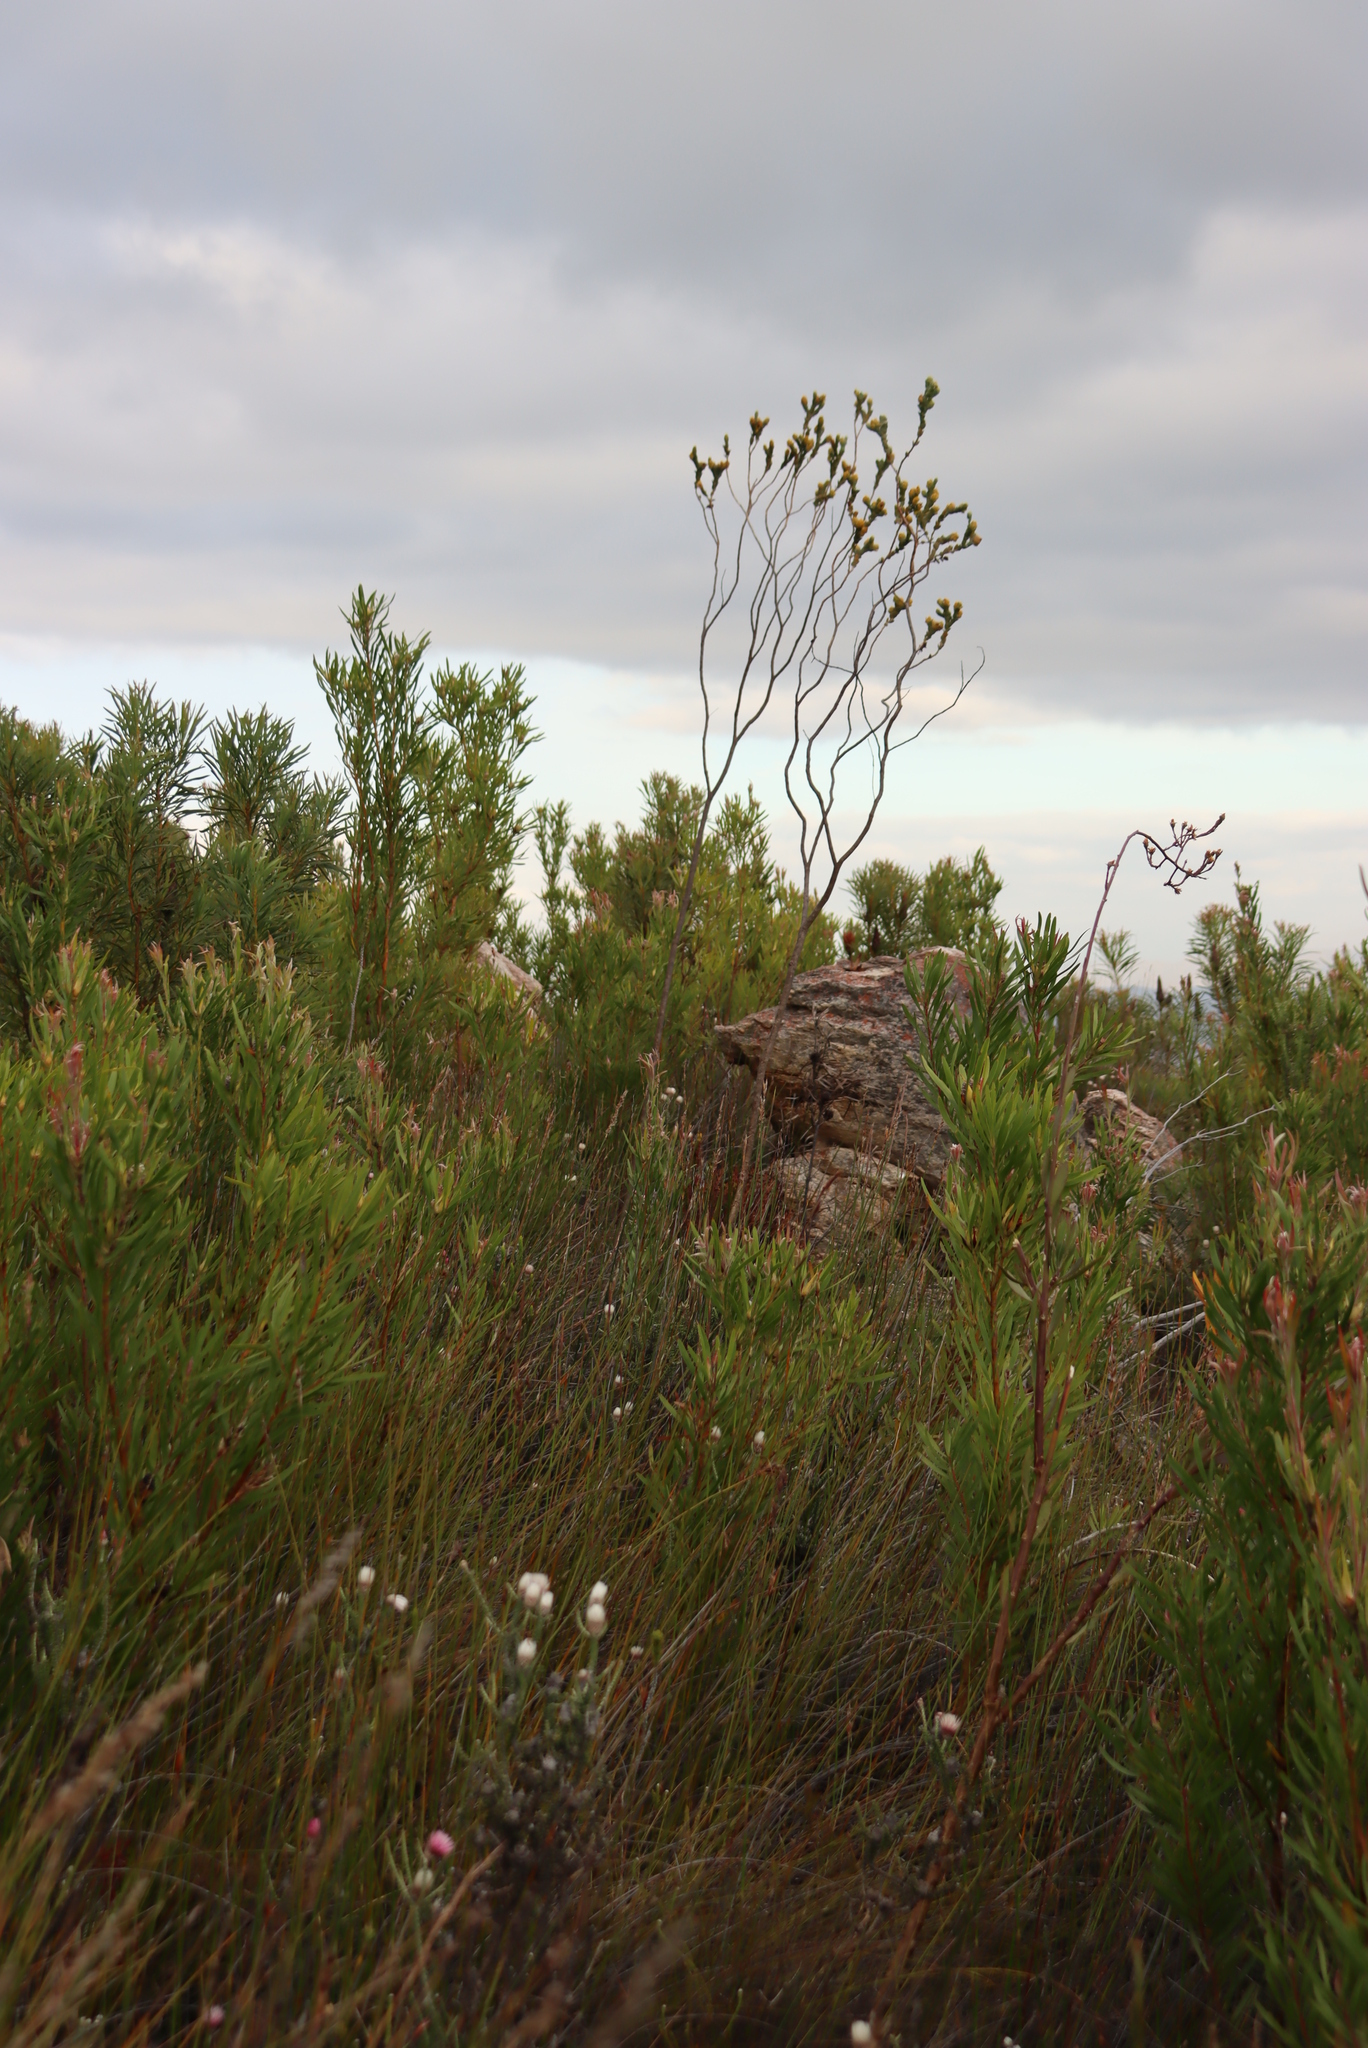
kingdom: Plantae
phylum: Tracheophyta
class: Magnoliopsida
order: Santalales
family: Thesiaceae
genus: Thesium
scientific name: Thesium euphorbioides
